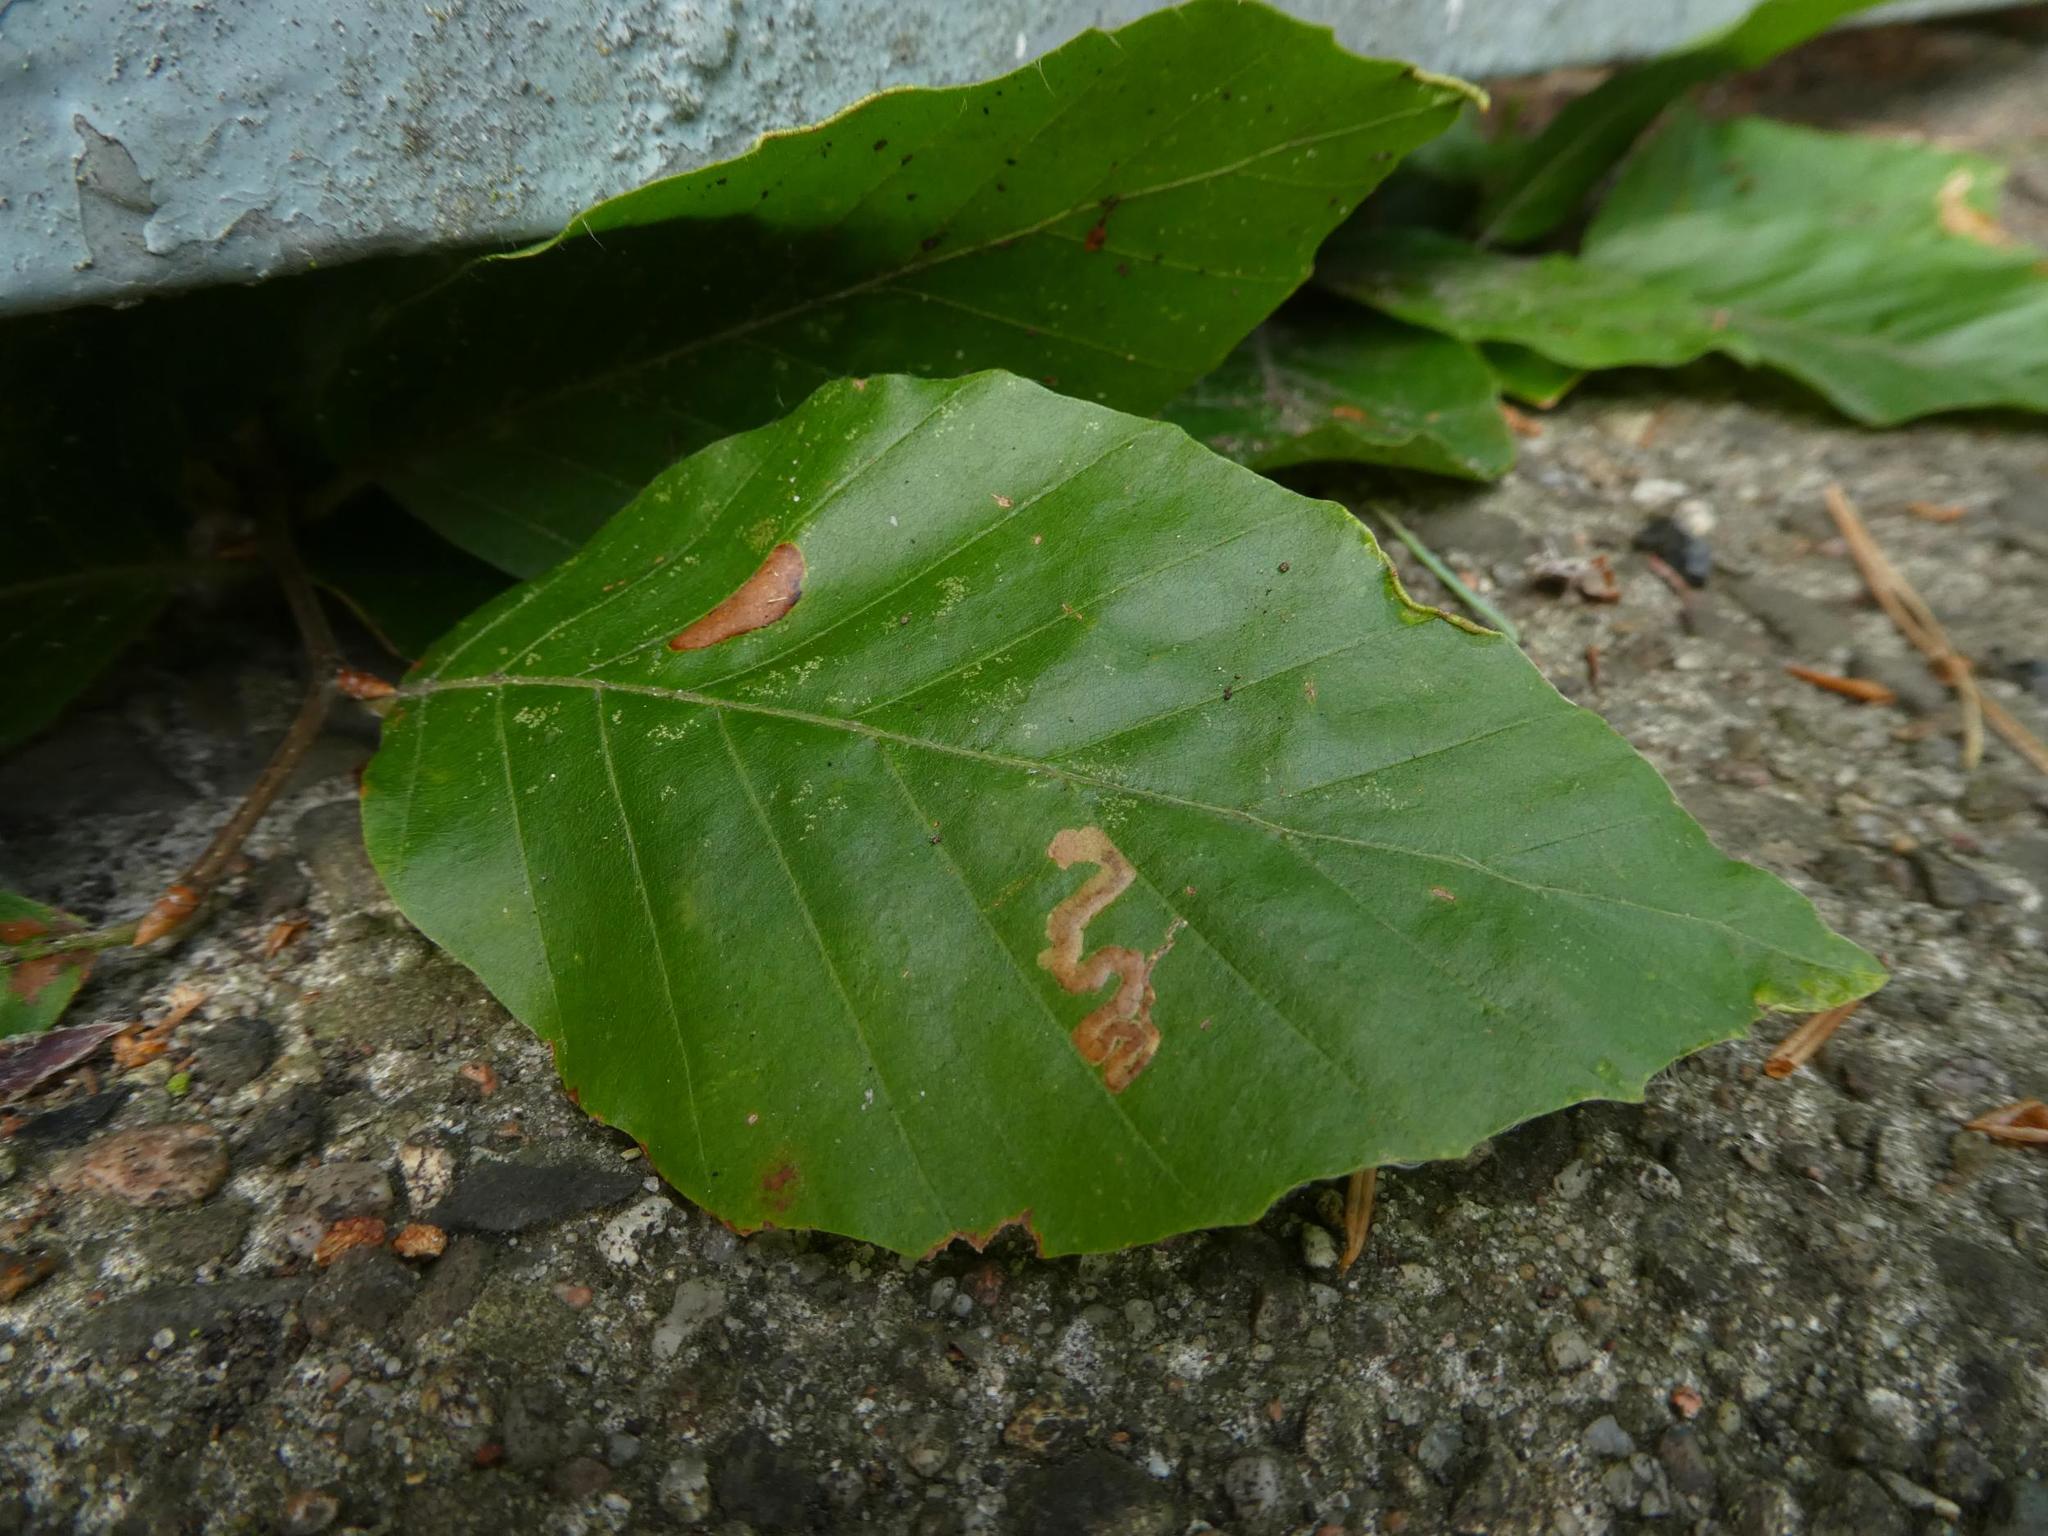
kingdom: Plantae
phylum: Tracheophyta
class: Magnoliopsida
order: Fagales
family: Fagaceae
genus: Fagus
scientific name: Fagus sylvatica
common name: Beech
